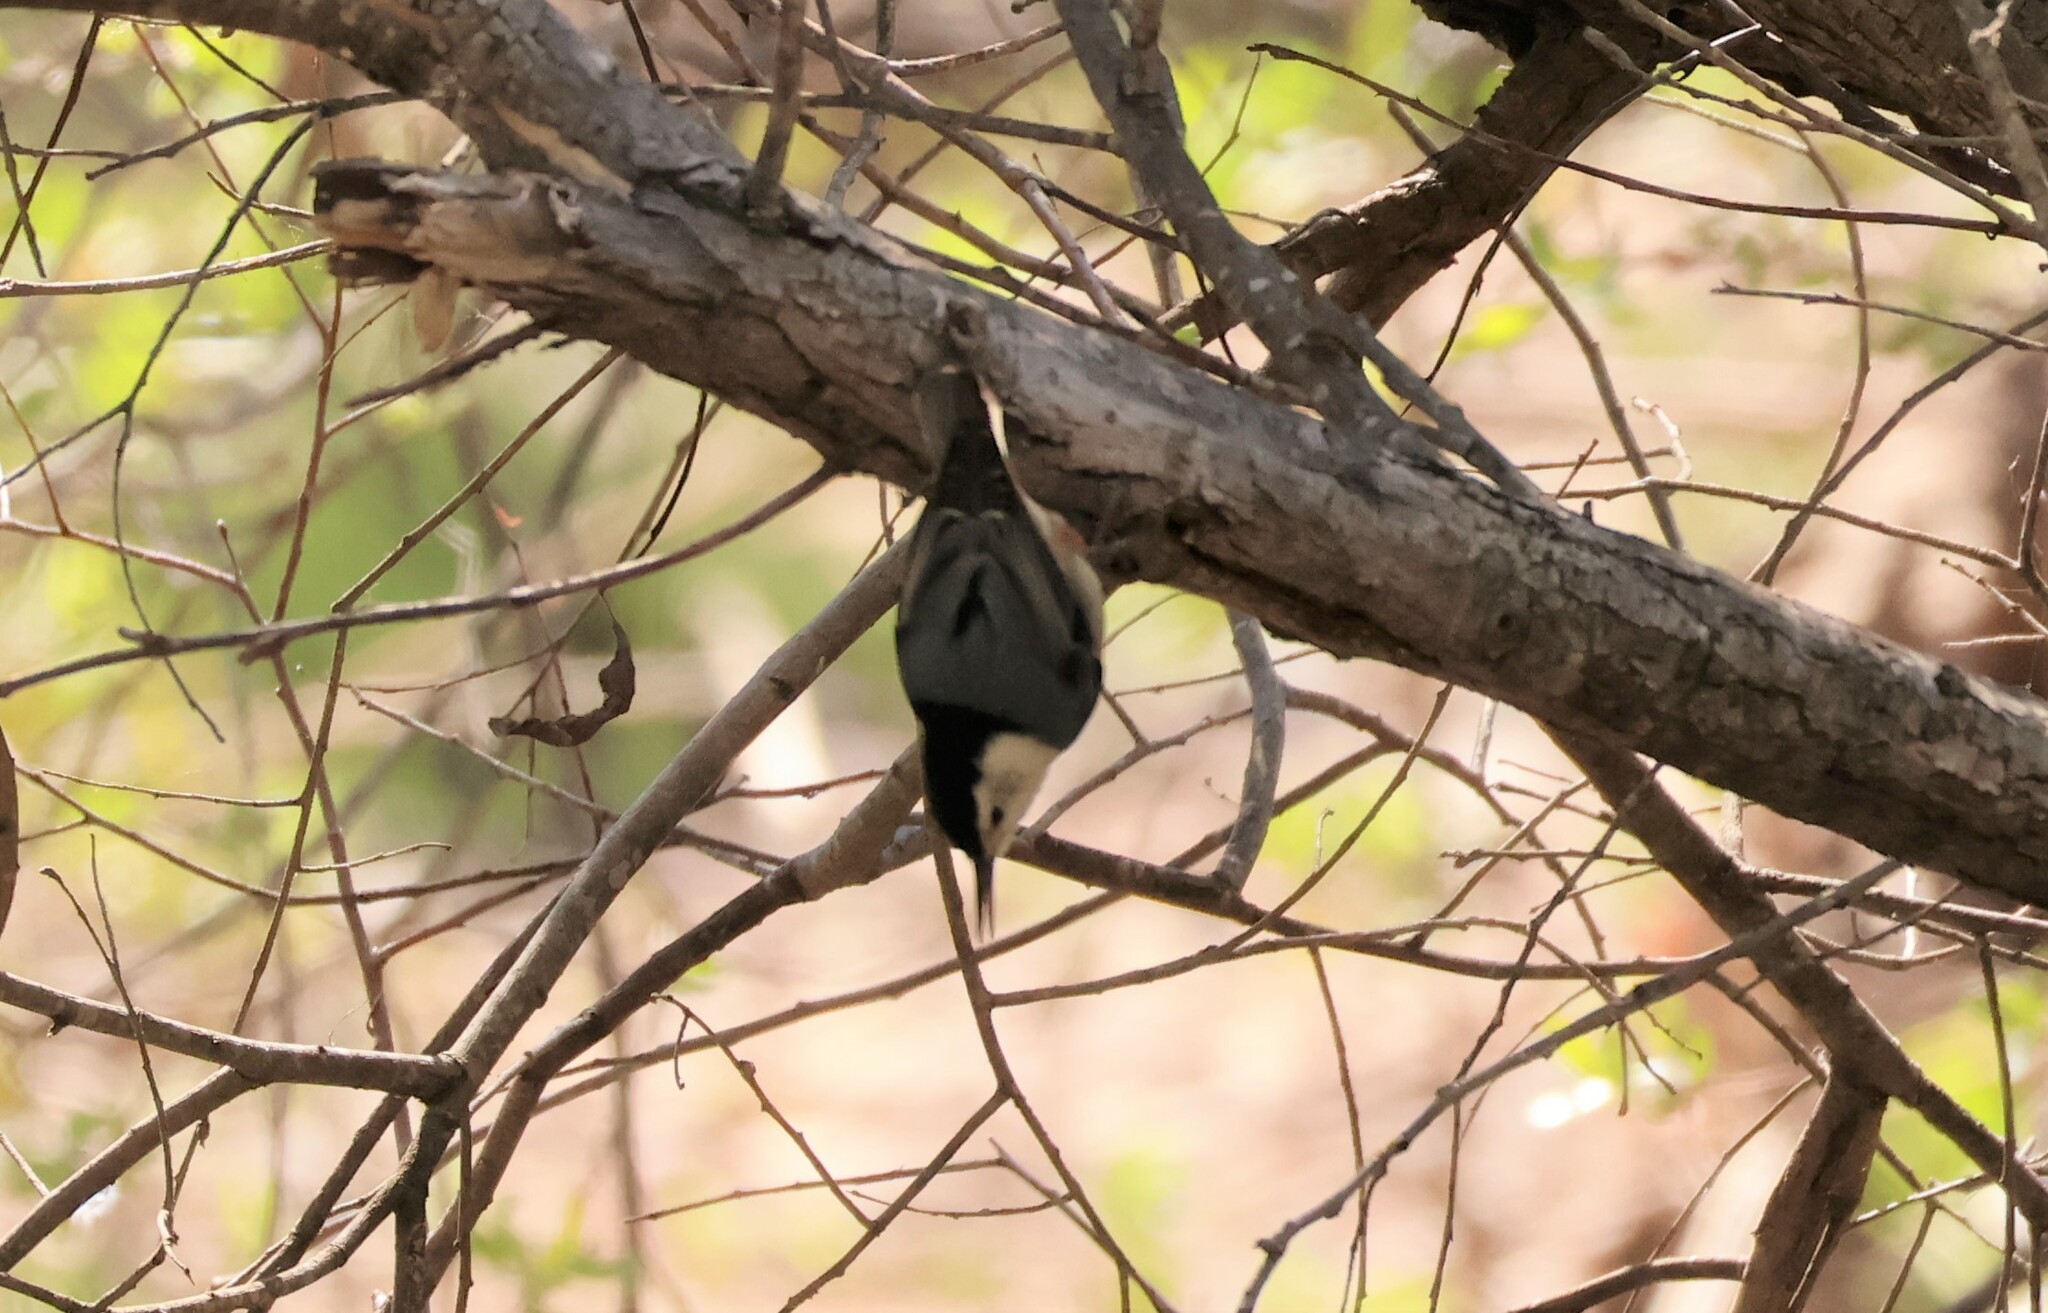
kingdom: Animalia
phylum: Chordata
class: Aves
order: Passeriformes
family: Sittidae
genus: Sitta
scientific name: Sitta carolinensis
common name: White-breasted nuthatch
